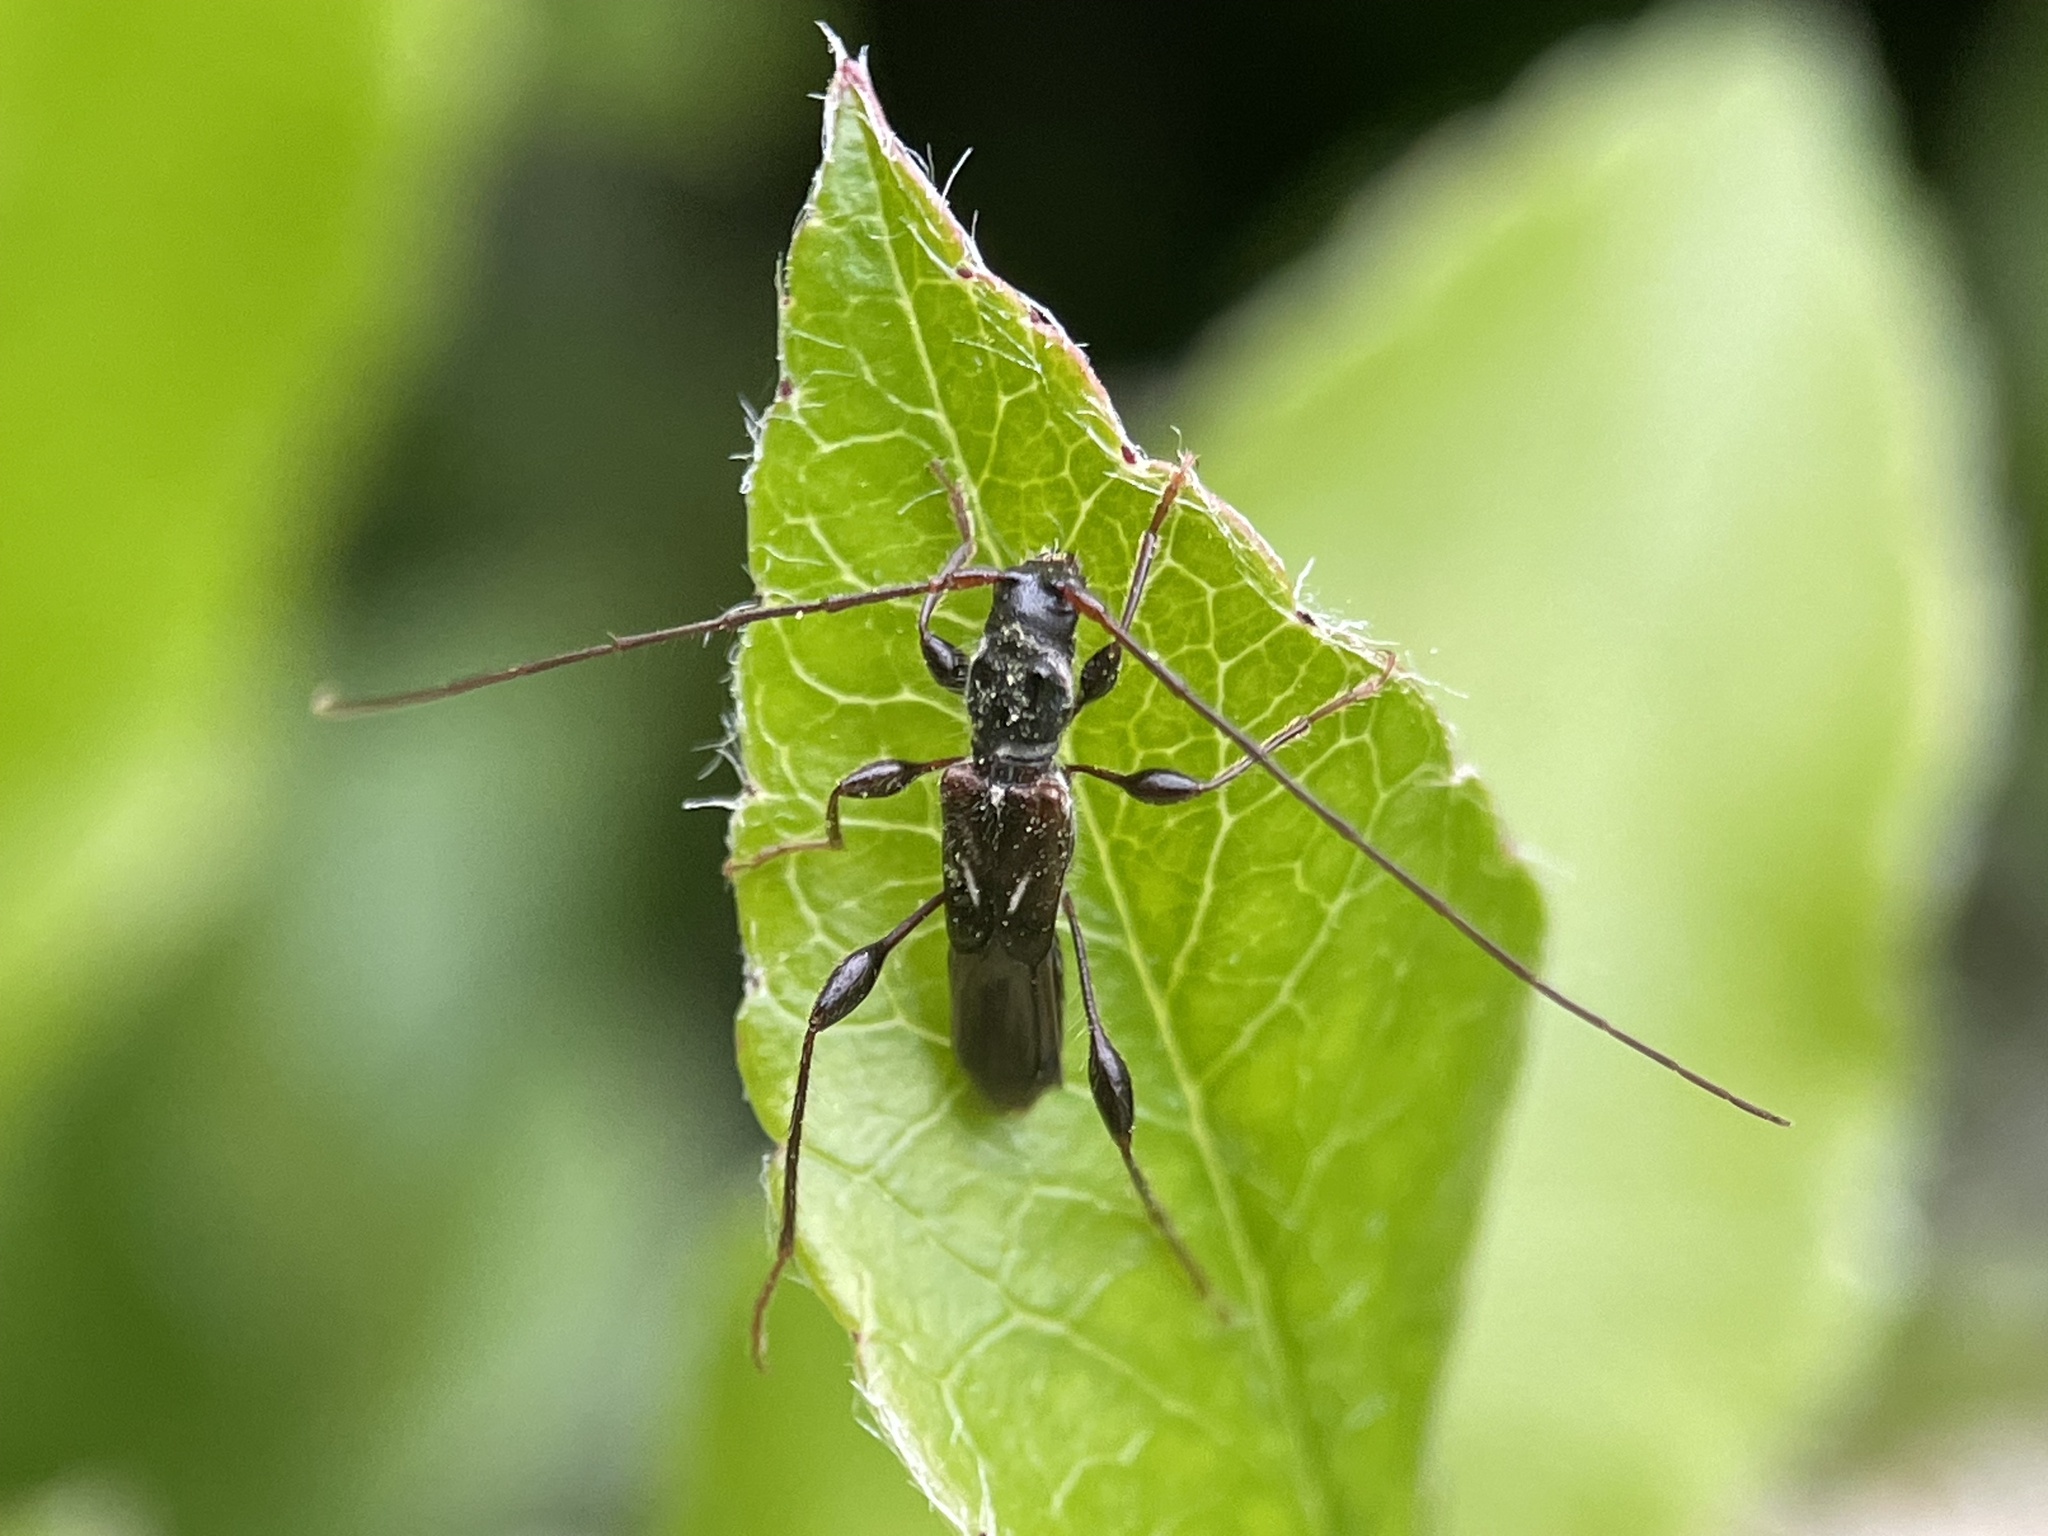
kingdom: Animalia
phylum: Arthropoda
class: Insecta
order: Coleoptera
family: Cerambycidae
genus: Molorchus
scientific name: Molorchus minor
